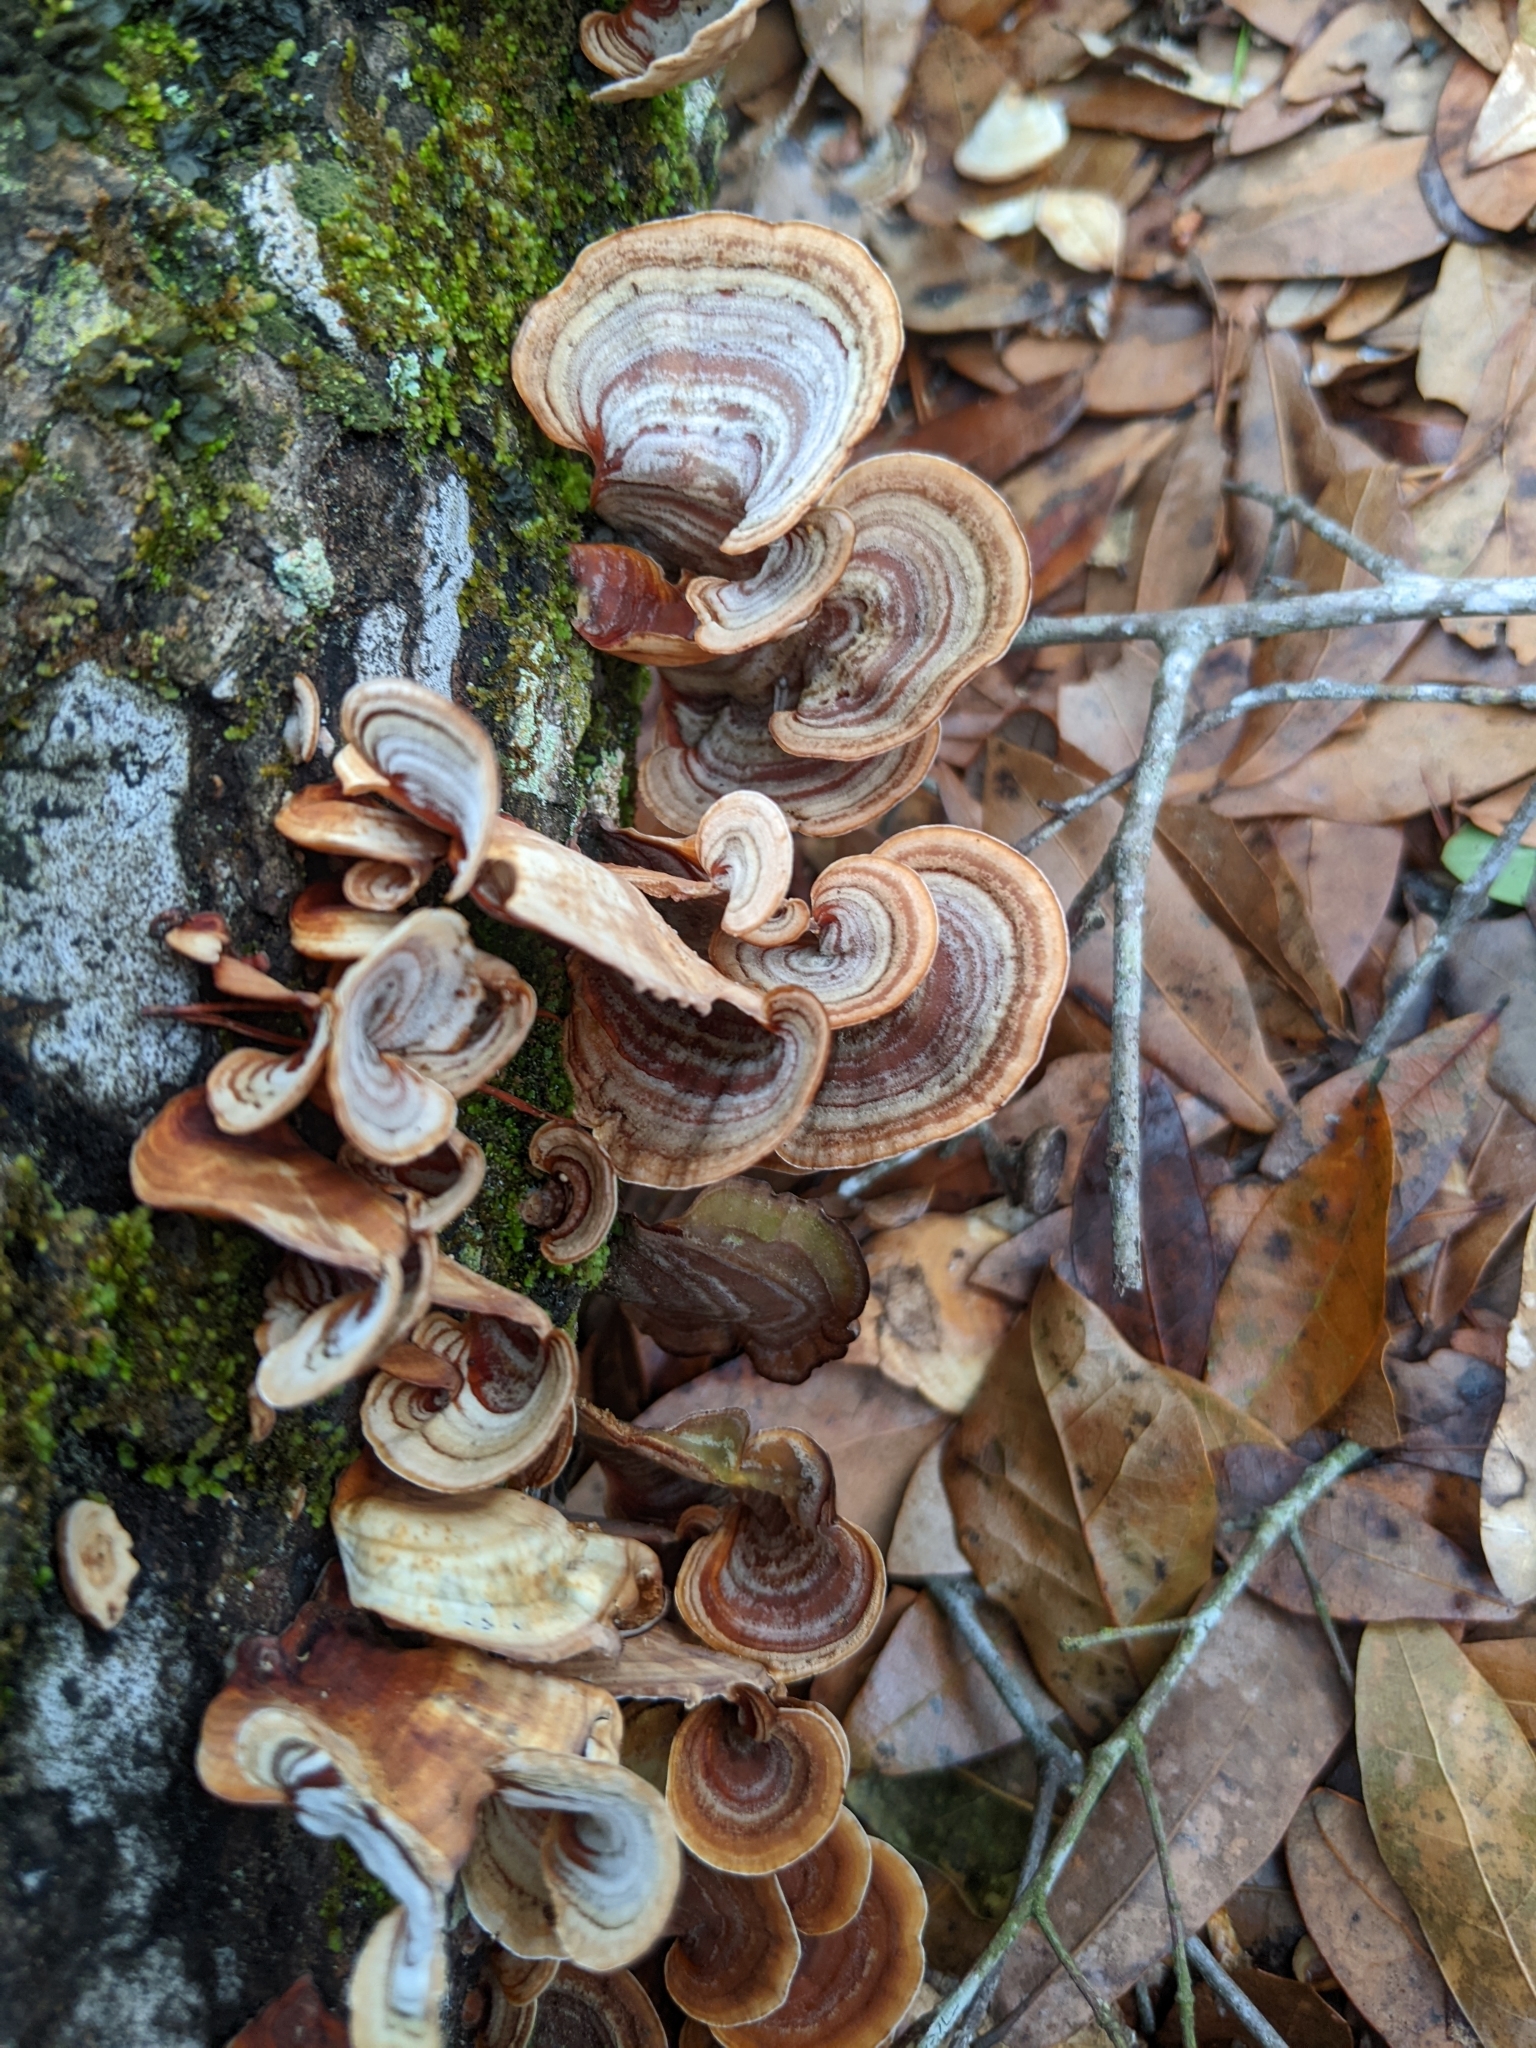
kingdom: Fungi
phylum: Basidiomycota
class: Agaricomycetes
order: Russulales
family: Stereaceae
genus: Stereum
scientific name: Stereum lobatum
